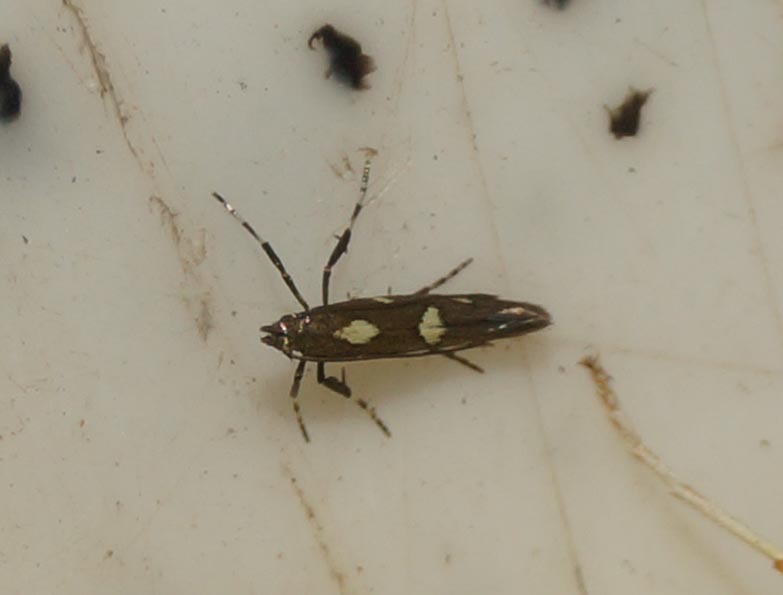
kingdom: Animalia
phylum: Arthropoda
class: Insecta
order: Lepidoptera
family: Gracillariidae
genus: Calybites
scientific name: Calybites phasianipennella
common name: Little slender
